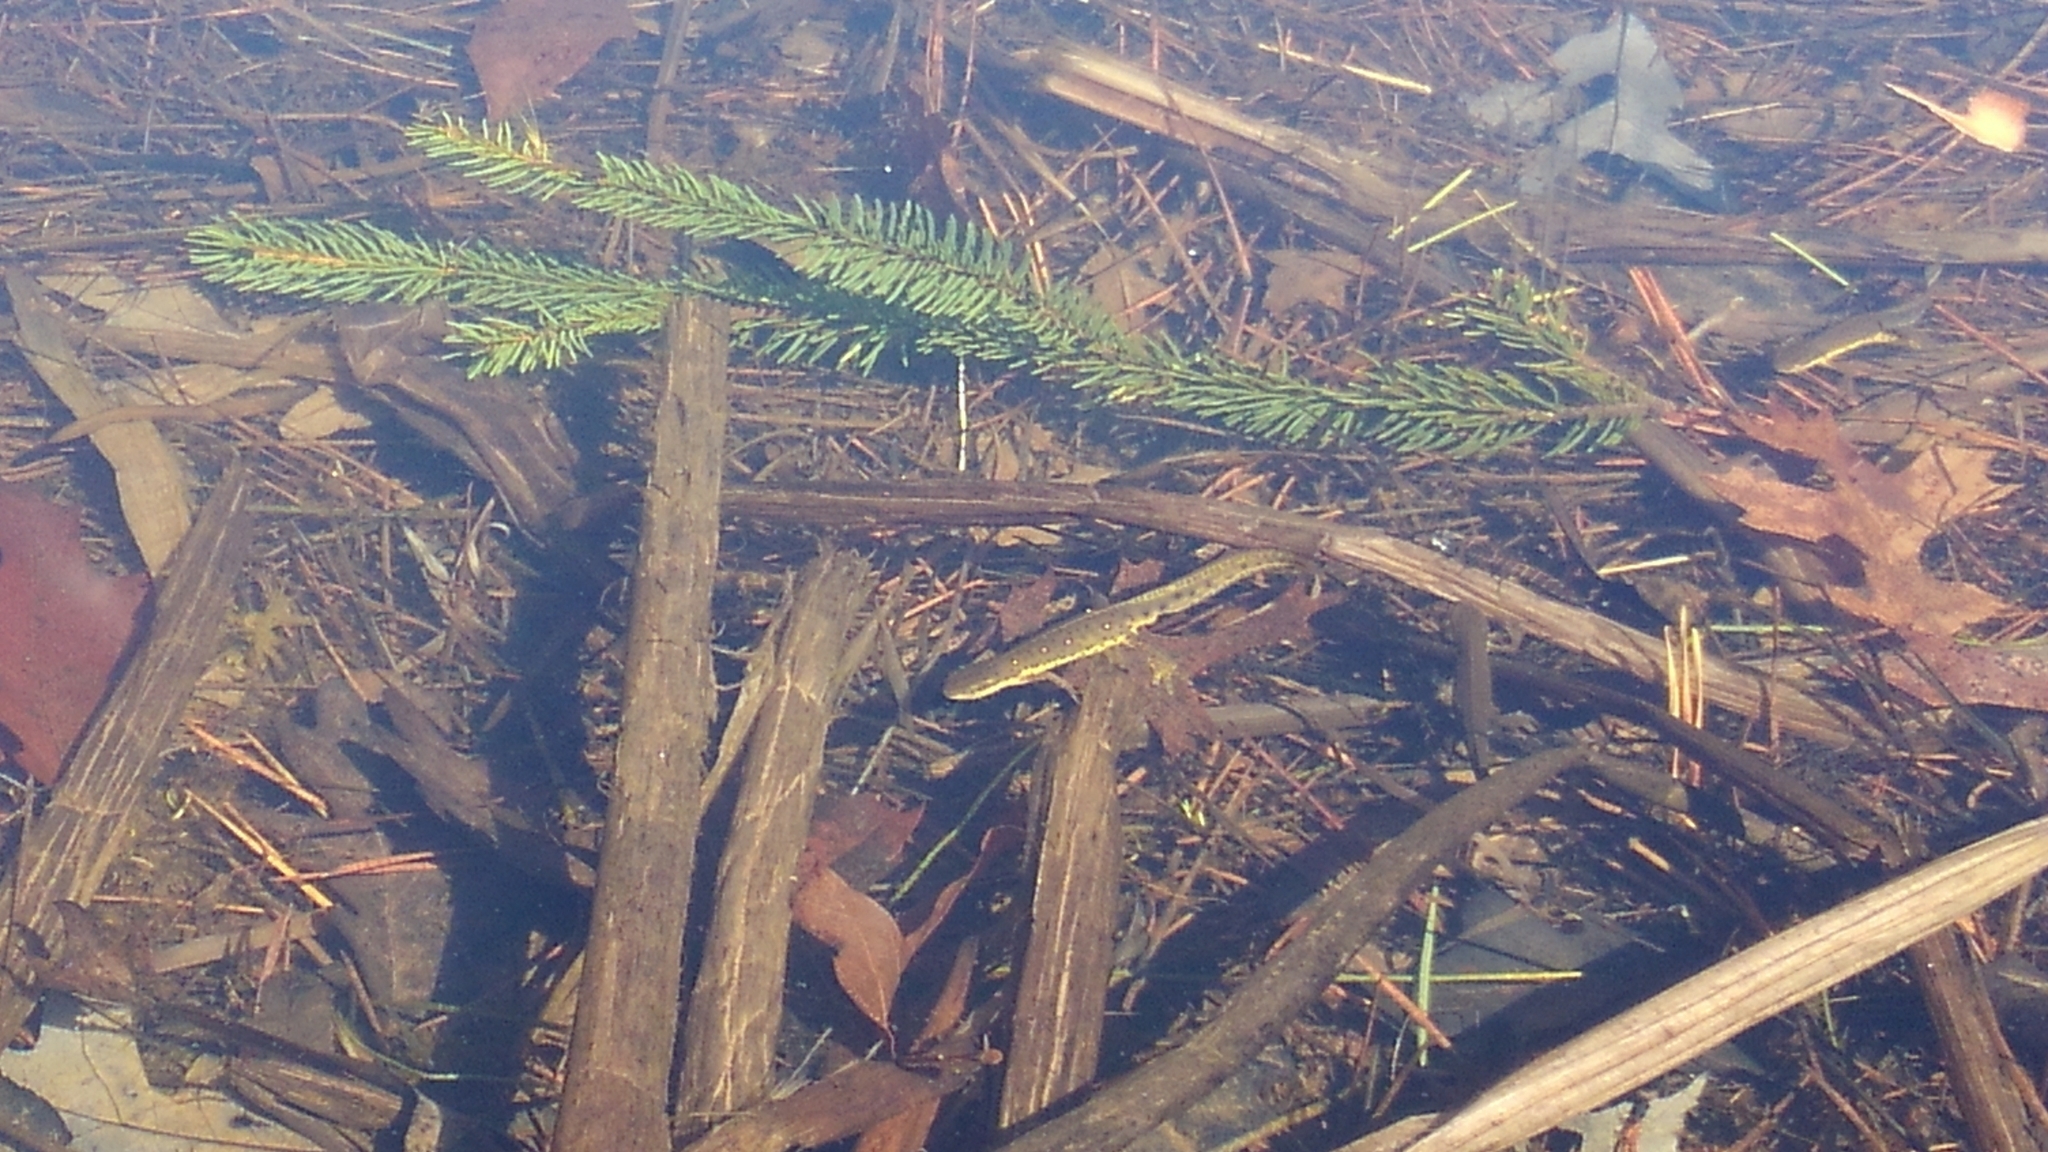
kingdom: Animalia
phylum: Chordata
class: Amphibia
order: Caudata
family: Salamandridae
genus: Notophthalmus
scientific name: Notophthalmus viridescens
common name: Eastern newt
